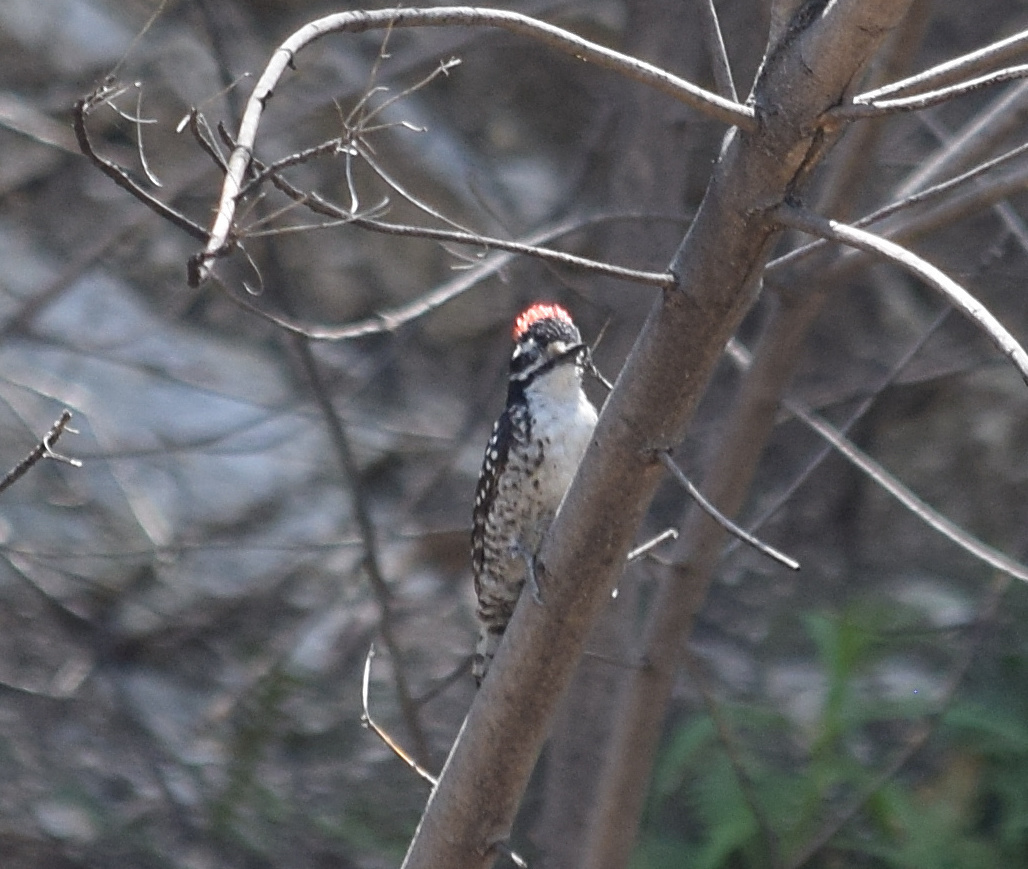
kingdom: Animalia
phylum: Chordata
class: Aves
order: Piciformes
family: Picidae
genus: Dryobates
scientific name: Dryobates nuttallii
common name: Nuttall's woodpecker
